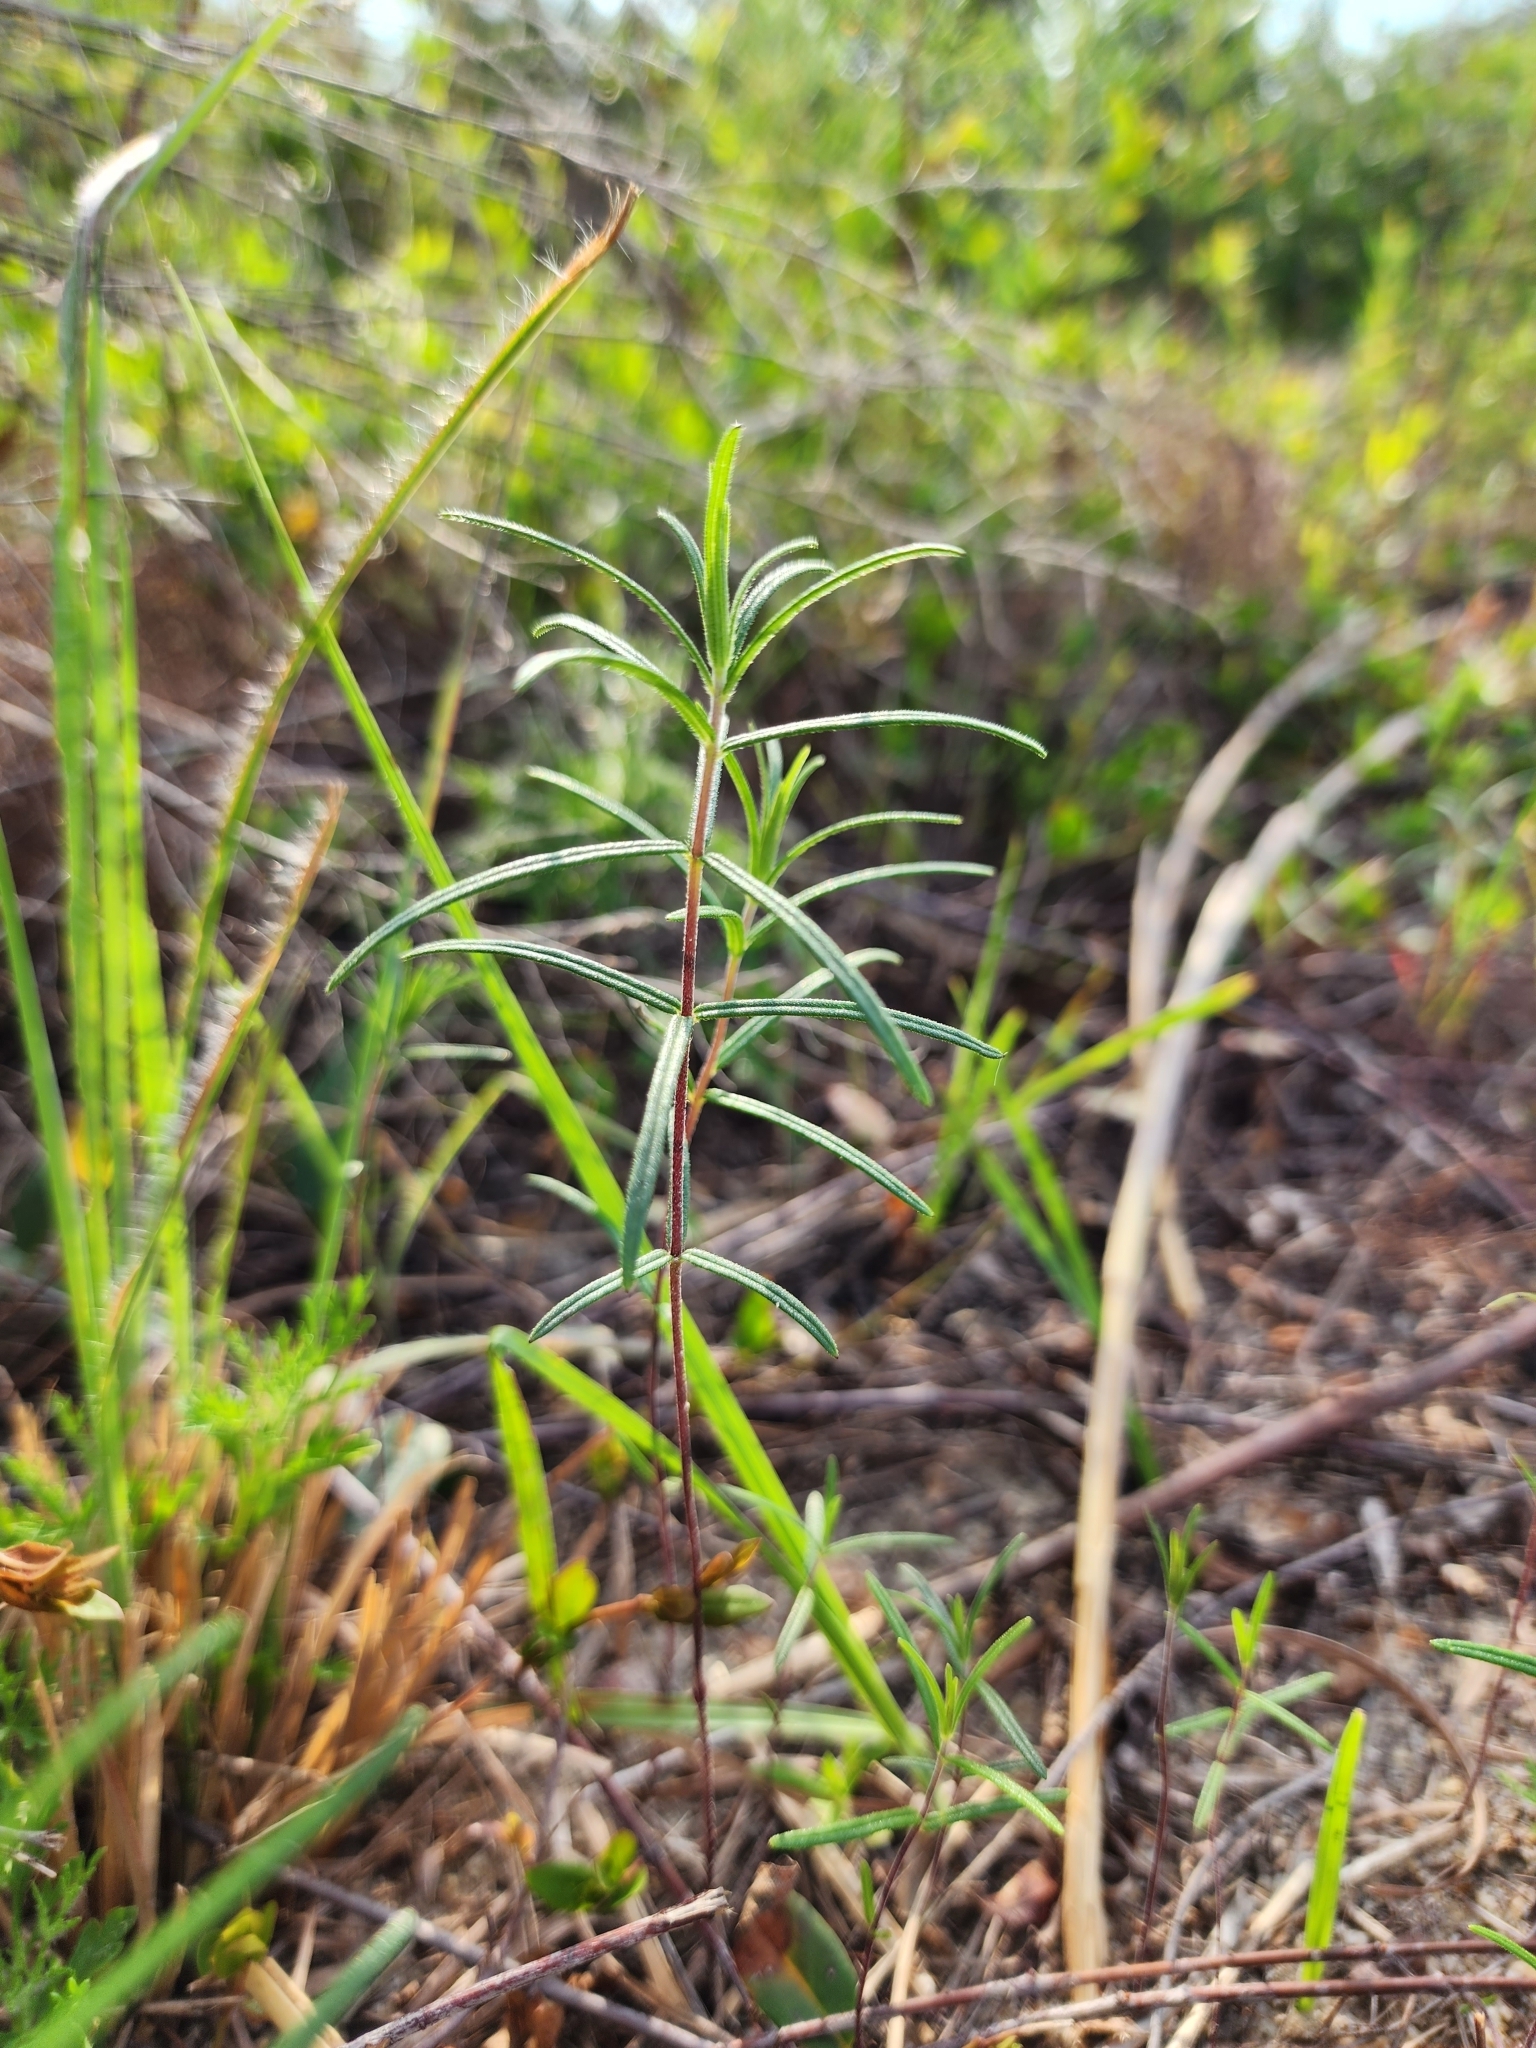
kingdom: Plantae
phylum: Tracheophyta
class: Magnoliopsida
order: Asterales
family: Asteraceae
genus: Phoebanthus
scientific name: Phoebanthus tenuifolia
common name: Pineland false sunflower
